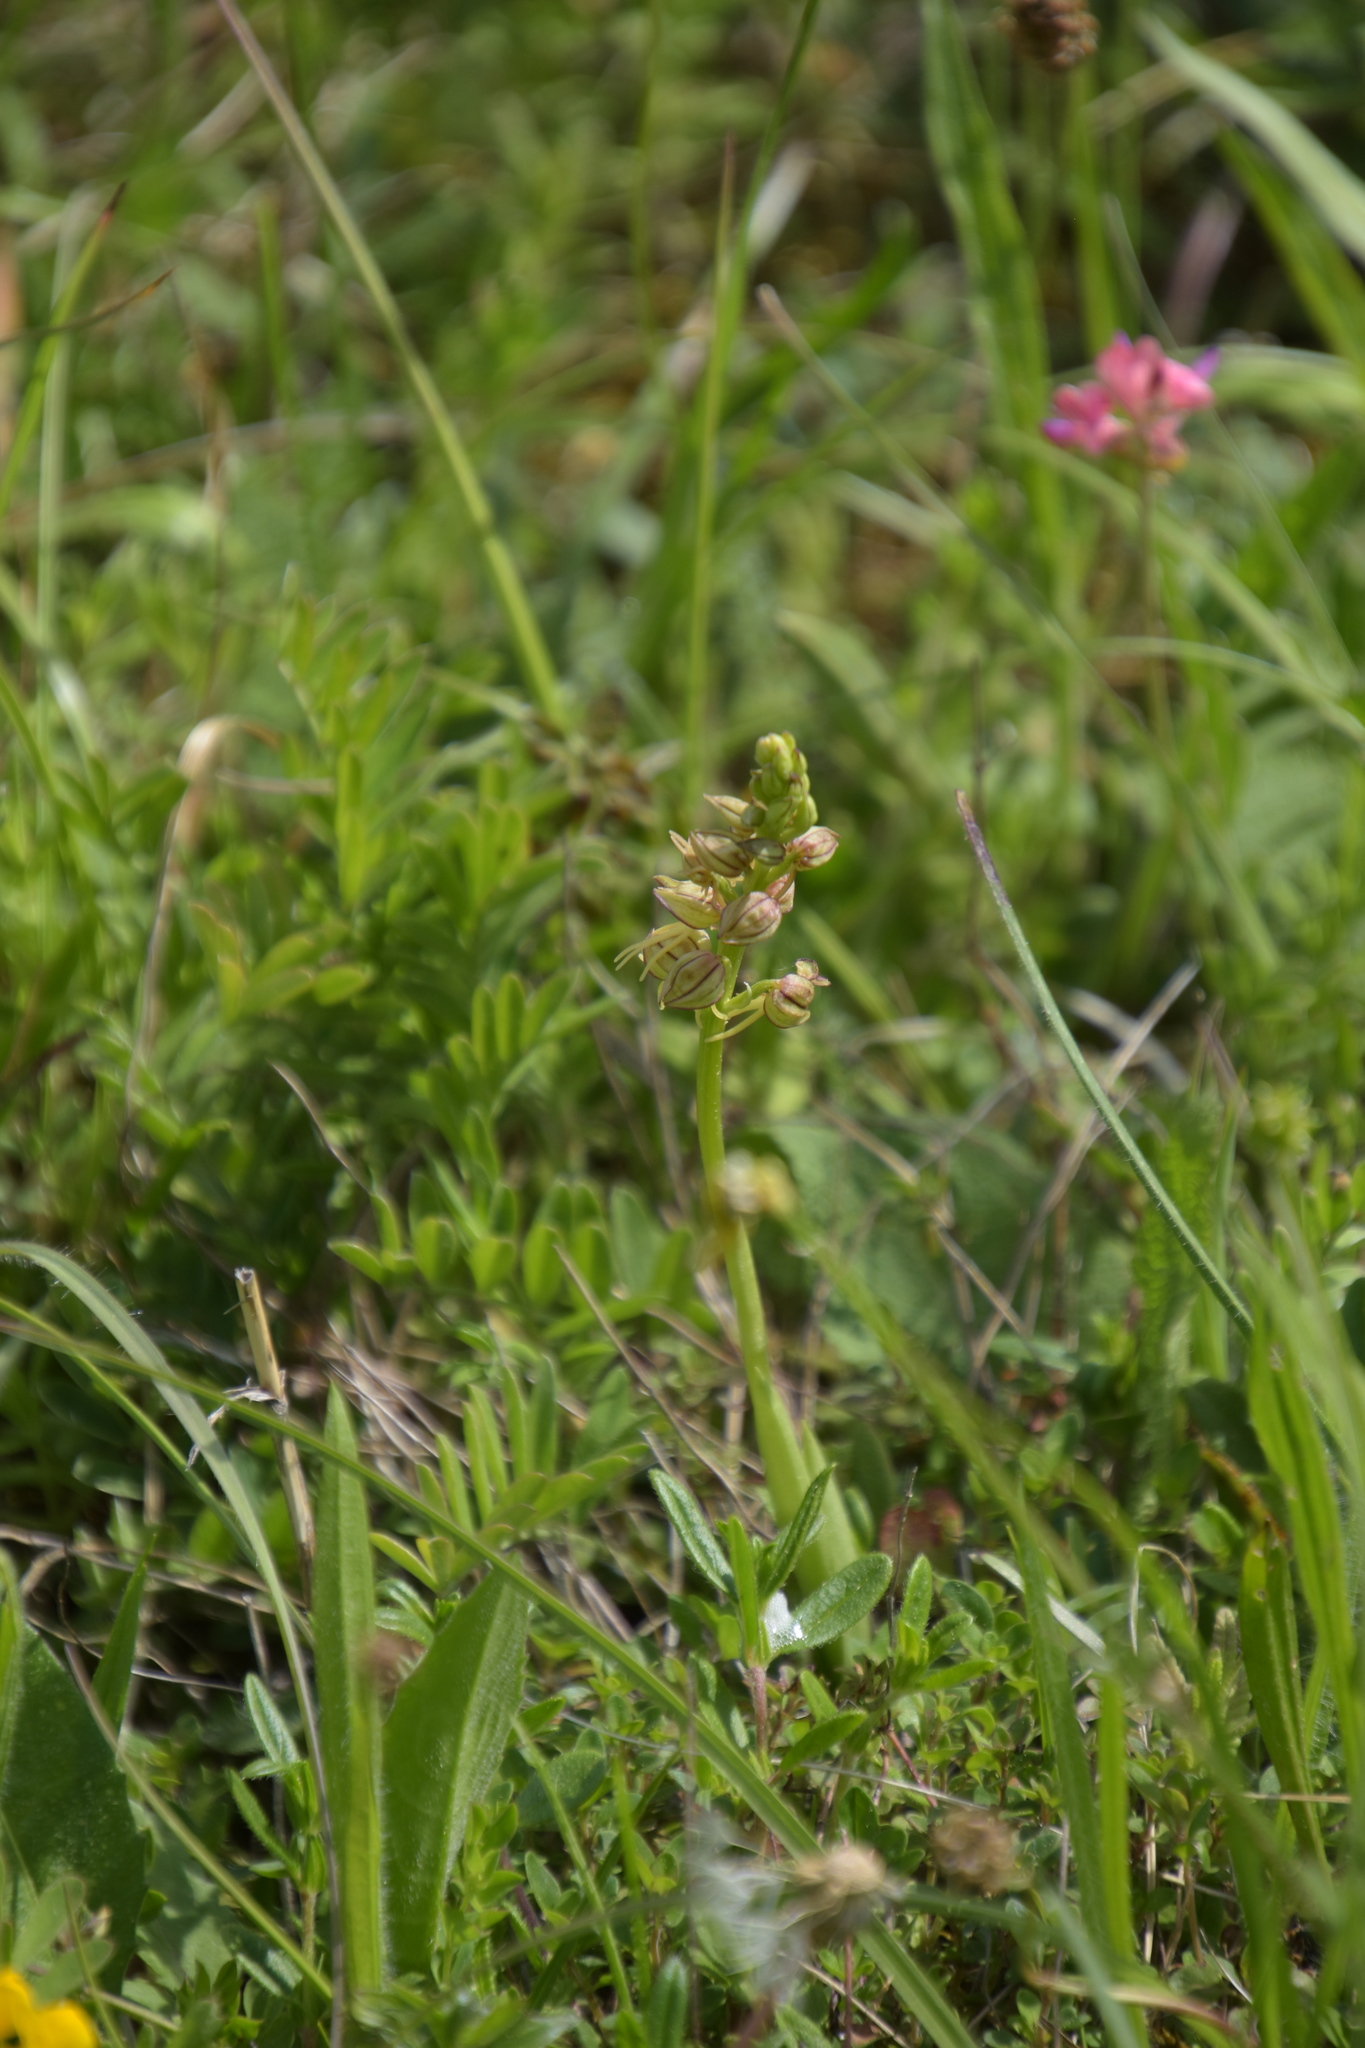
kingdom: Plantae
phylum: Tracheophyta
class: Liliopsida
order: Asparagales
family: Orchidaceae
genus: Orchis
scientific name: Orchis anthropophora
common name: Man orchid
